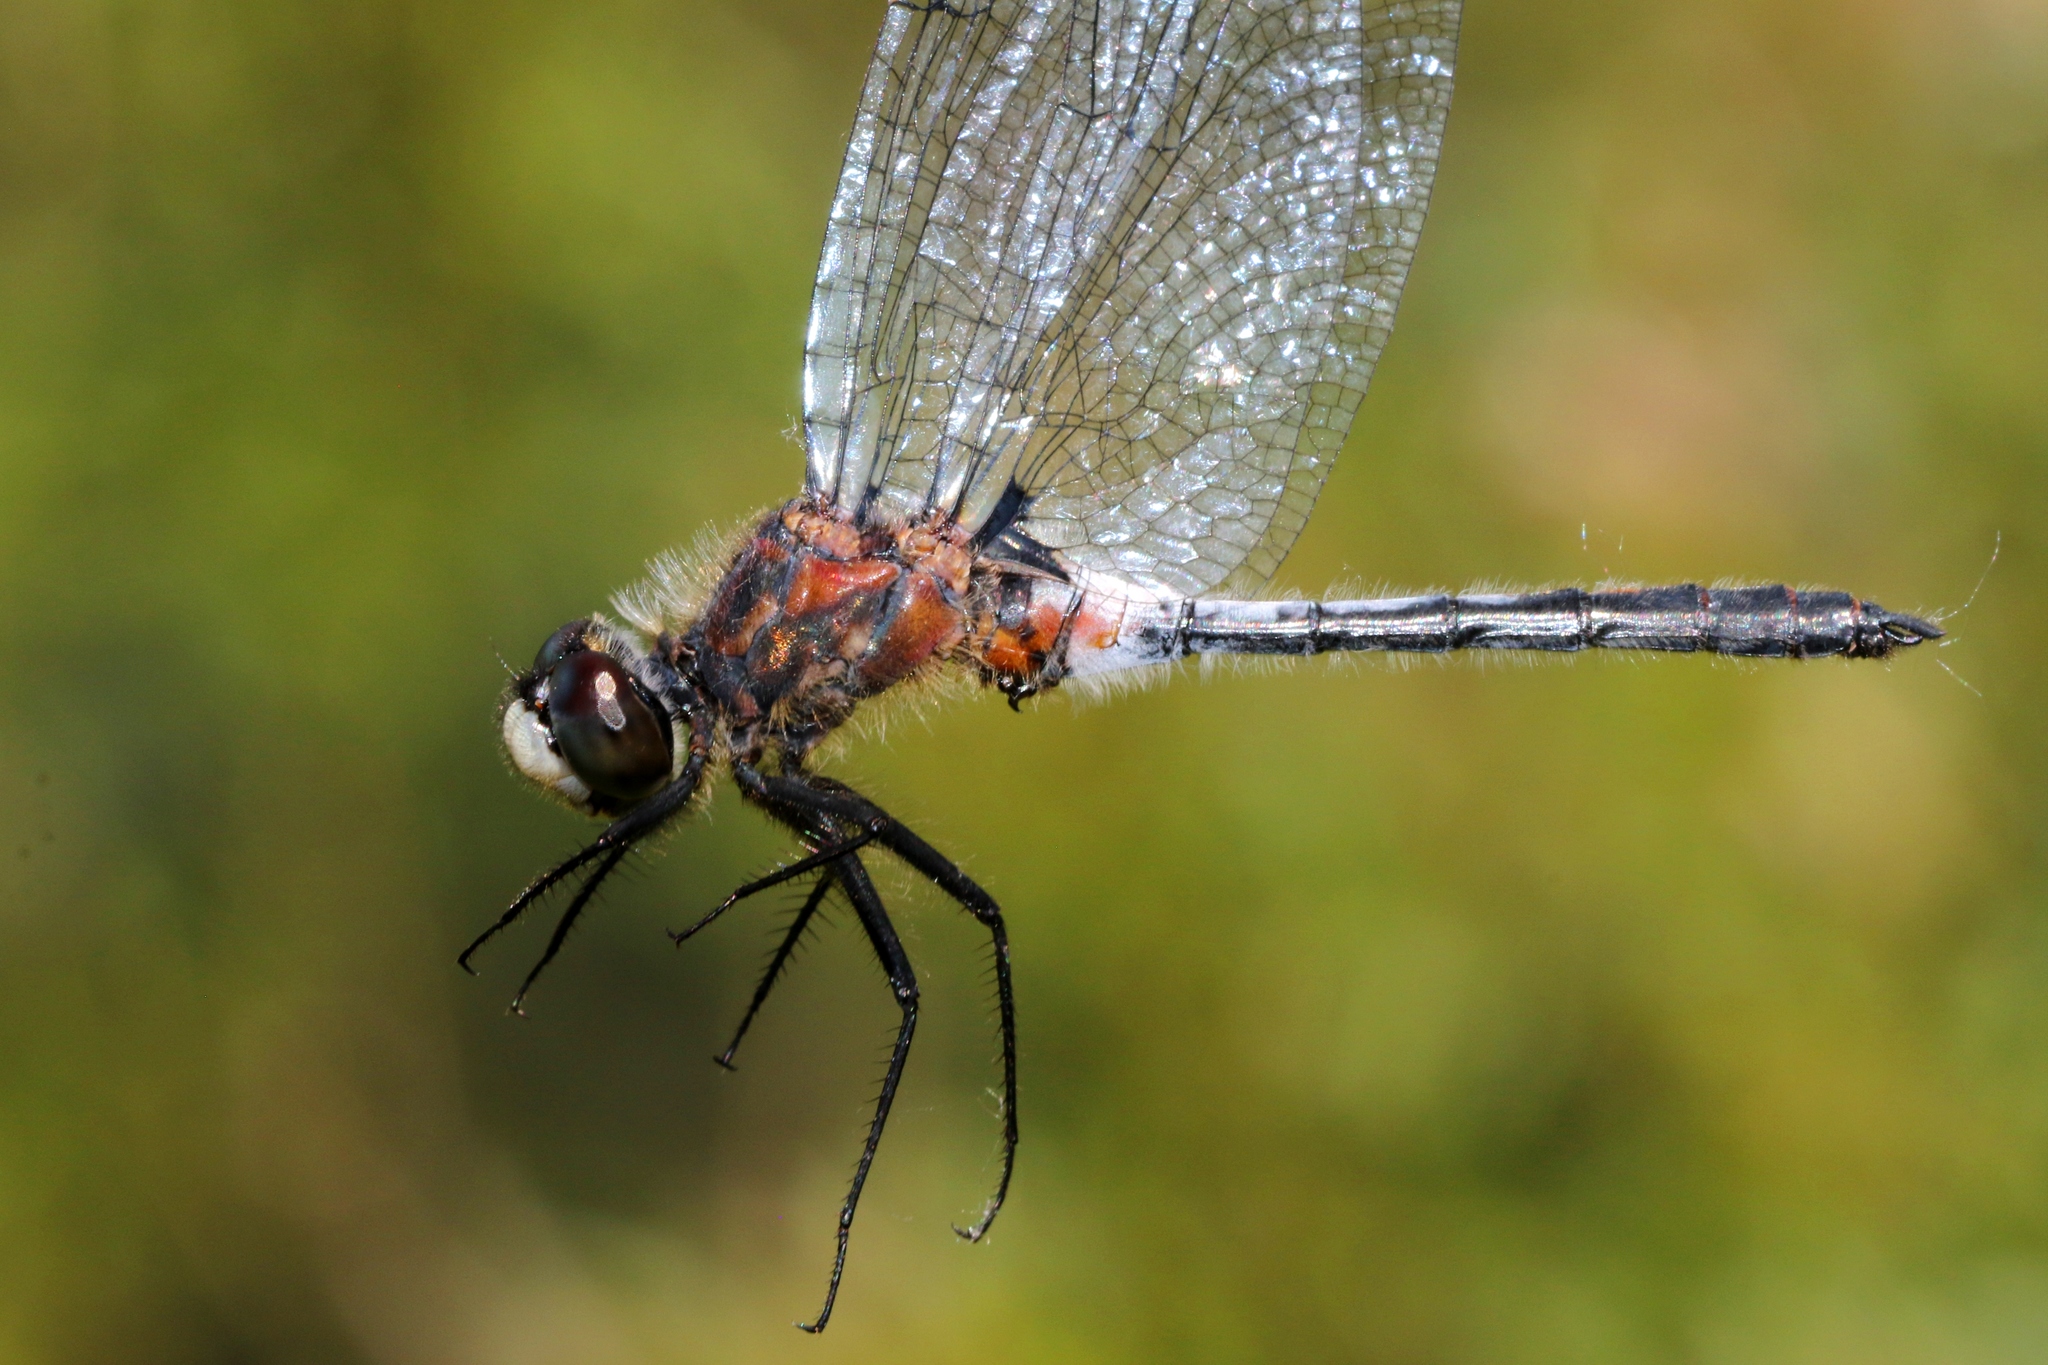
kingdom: Animalia
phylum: Arthropoda
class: Insecta
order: Odonata
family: Libellulidae
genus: Leucorrhinia
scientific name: Leucorrhinia proxima
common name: Belted whiteface
